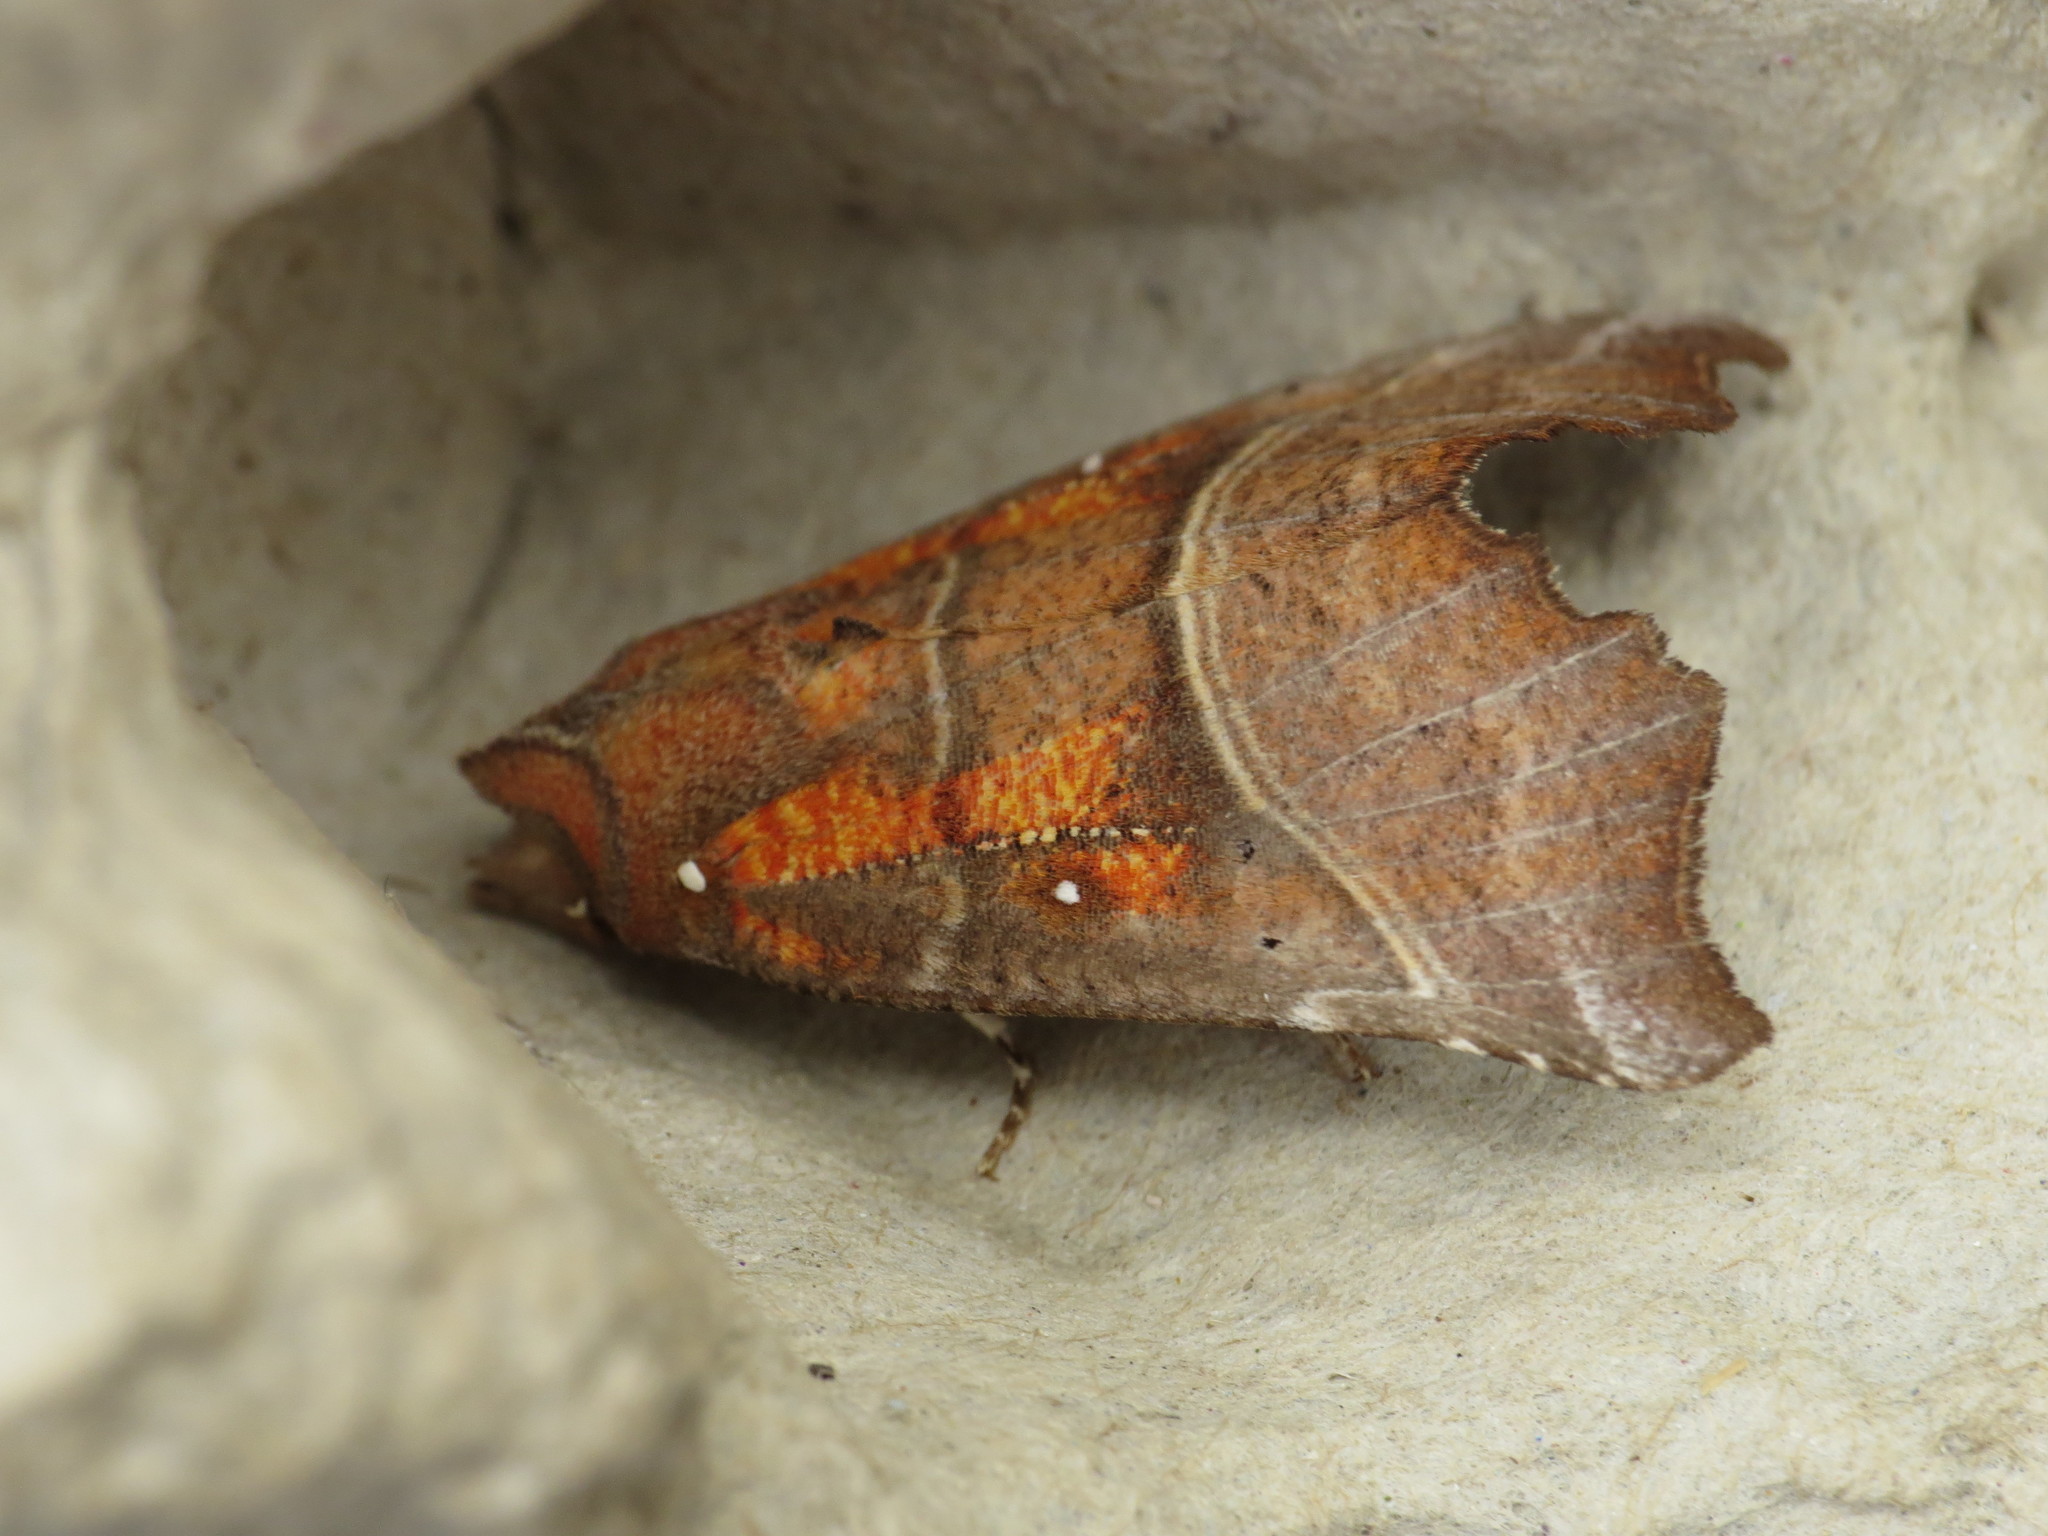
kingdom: Animalia
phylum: Arthropoda
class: Insecta
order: Lepidoptera
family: Erebidae
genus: Scoliopteryx
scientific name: Scoliopteryx libatrix
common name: Herald
